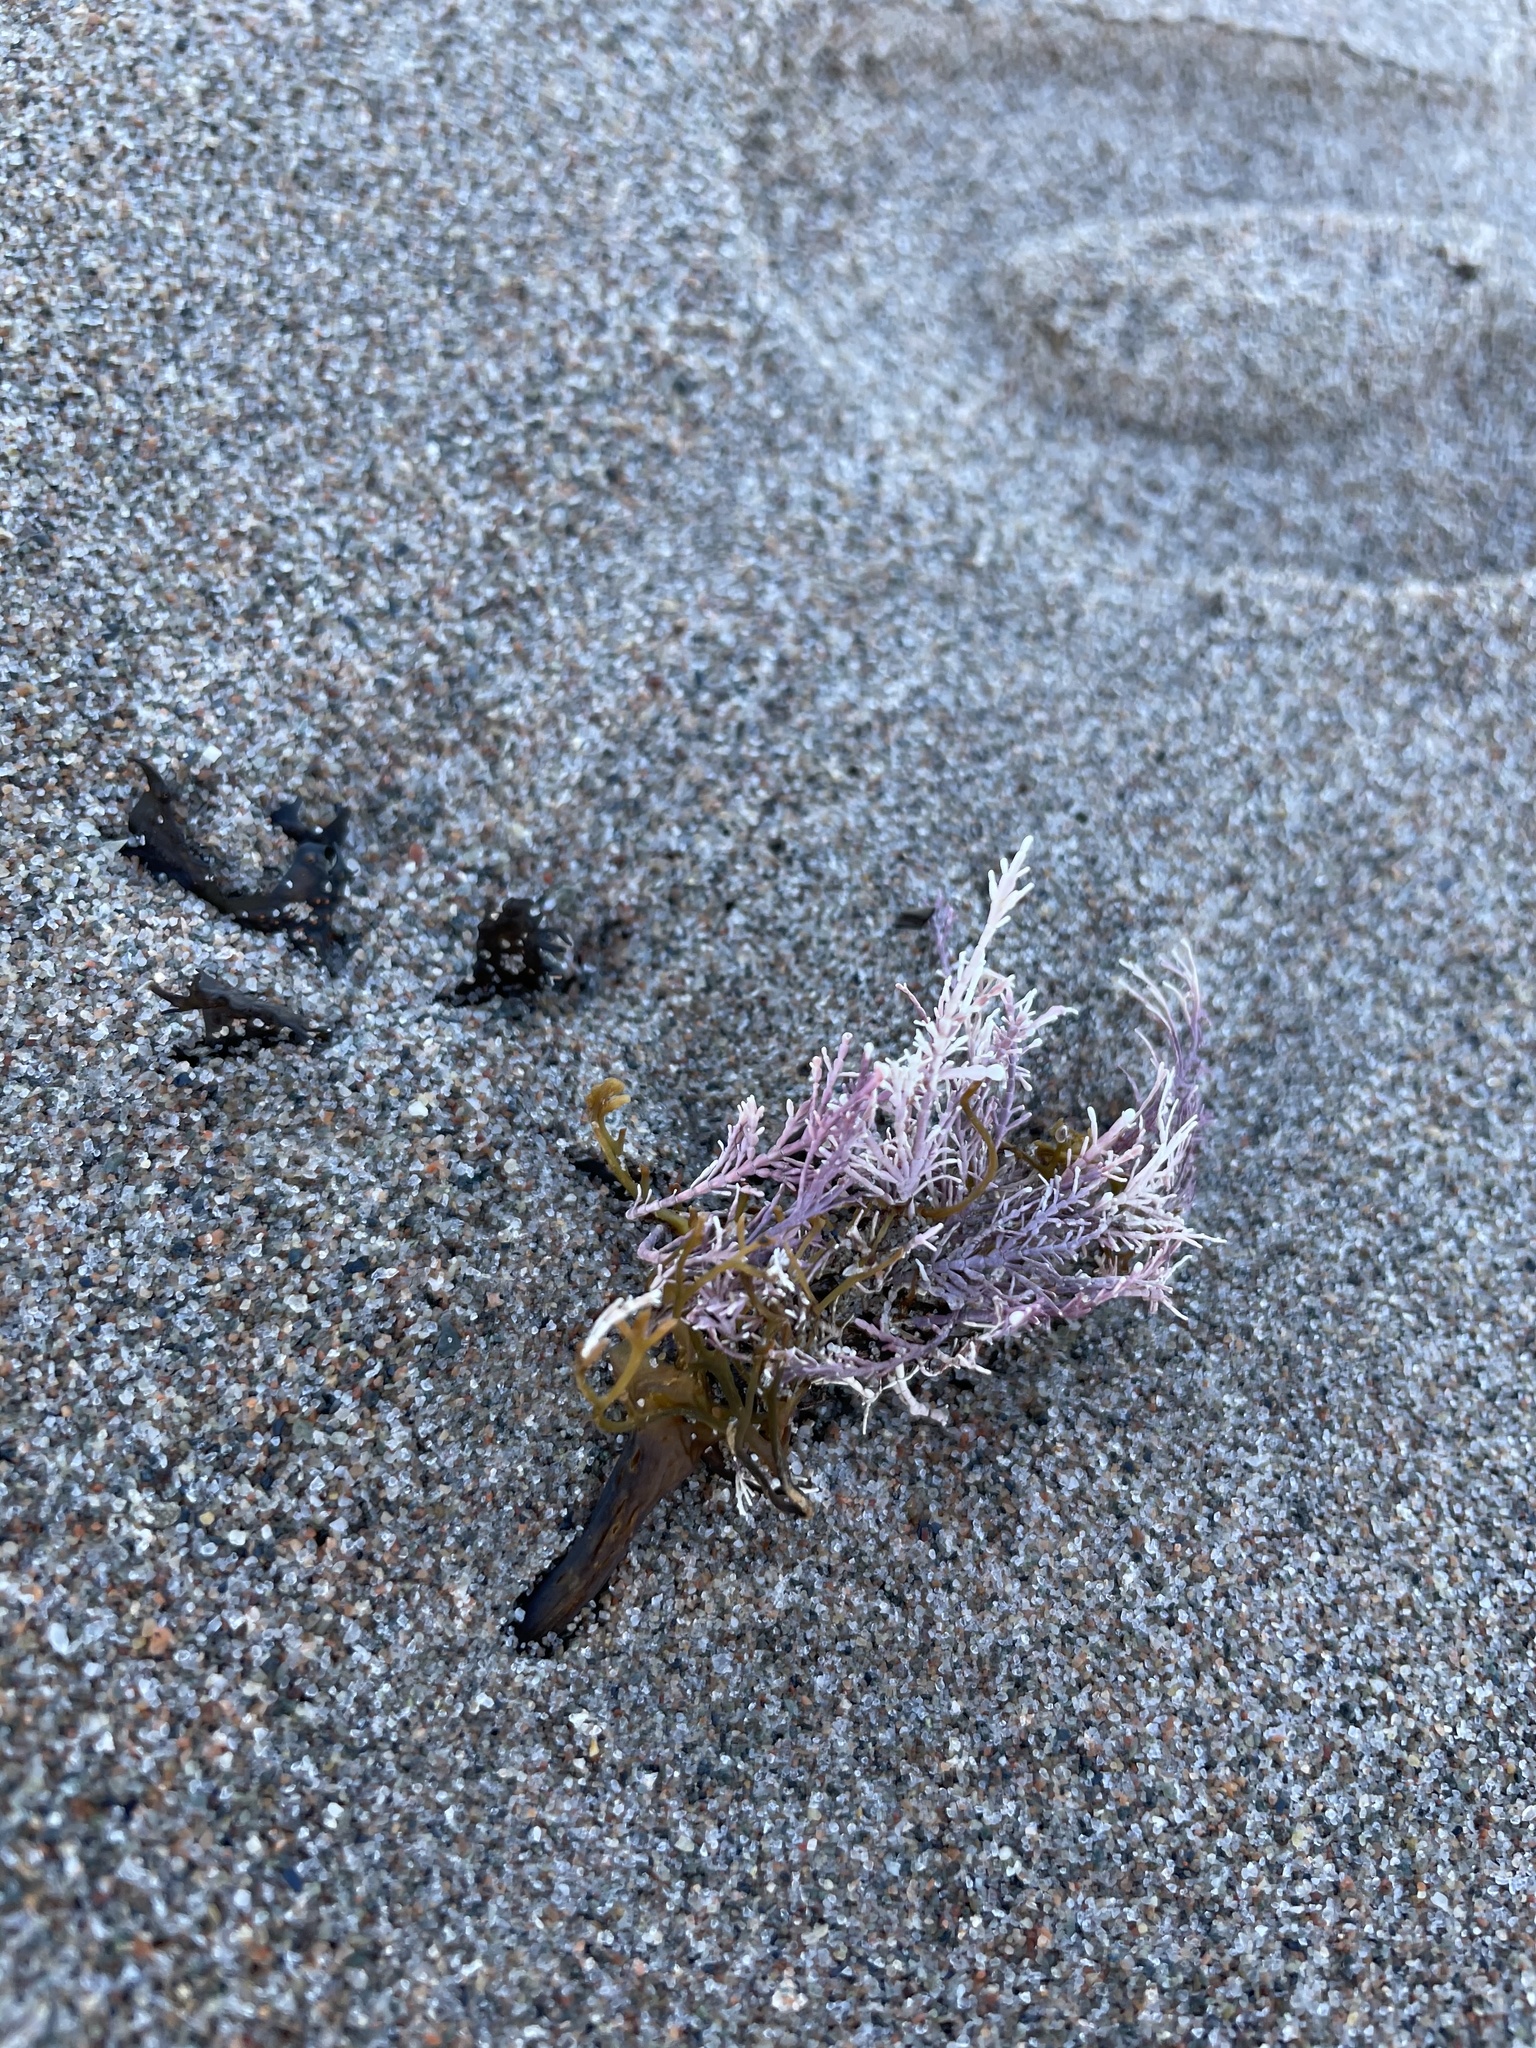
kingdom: Plantae
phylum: Rhodophyta
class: Florideophyceae
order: Corallinales
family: Corallinaceae
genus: Corallina
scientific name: Corallina officinalis
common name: Coral weed
